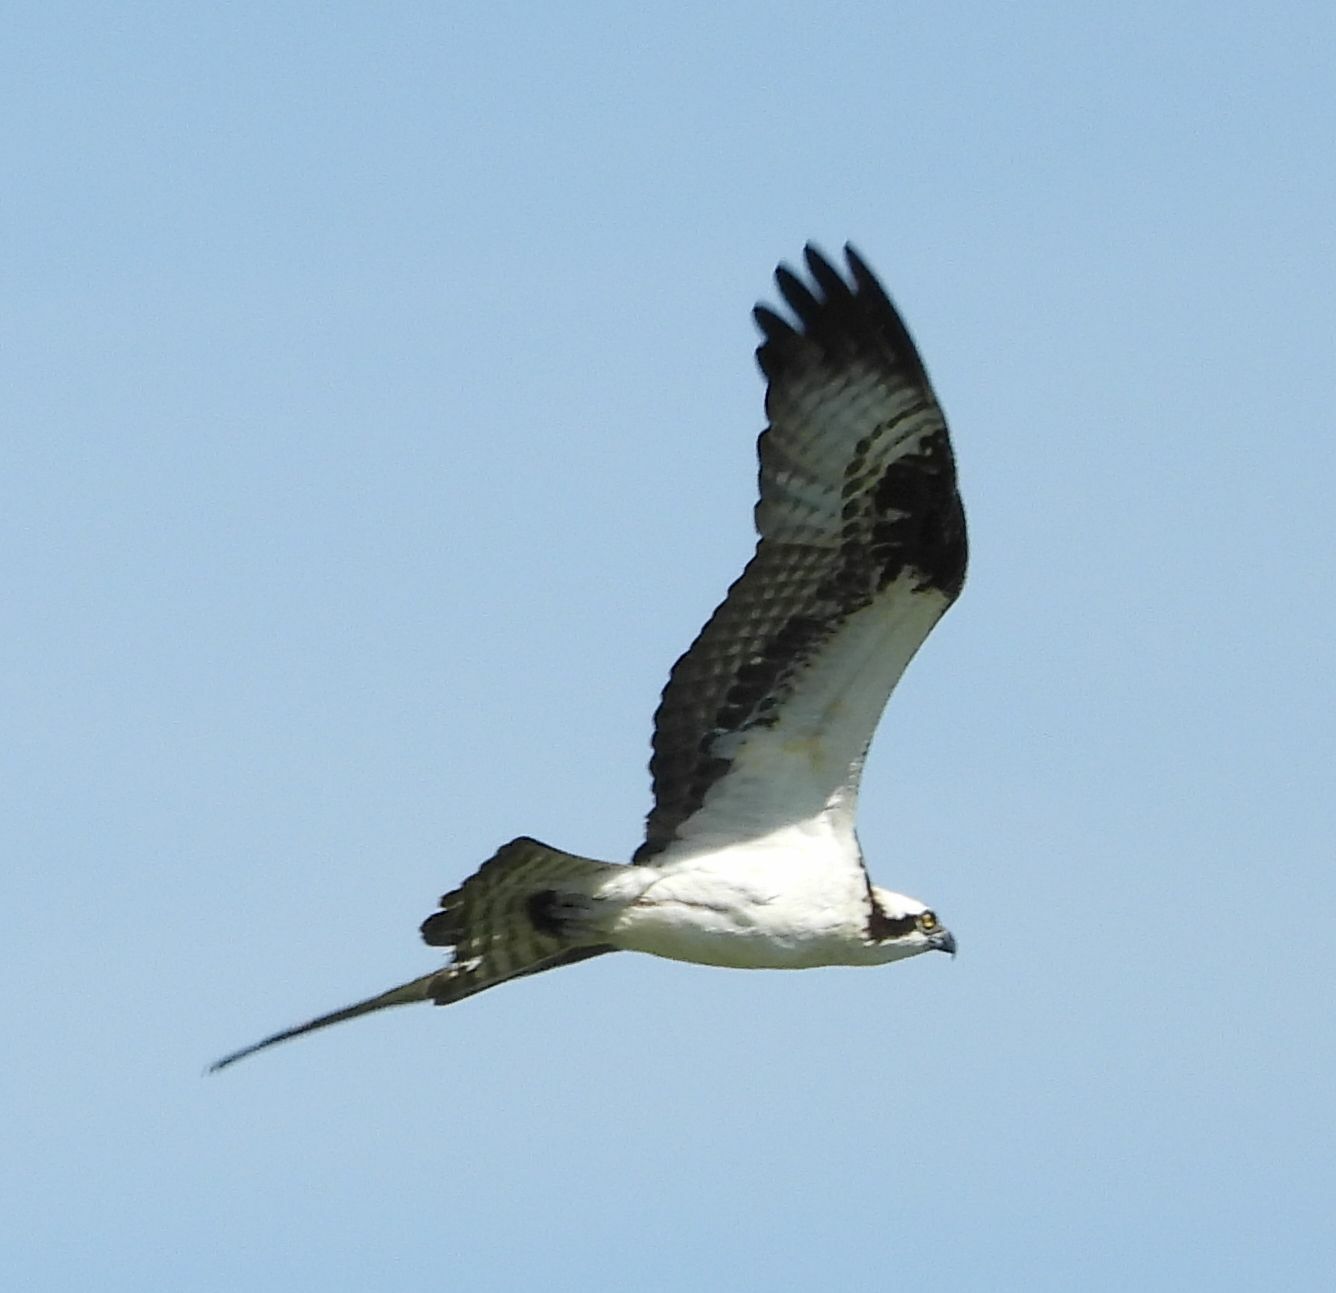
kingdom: Animalia
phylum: Chordata
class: Aves
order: Accipitriformes
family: Pandionidae
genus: Pandion
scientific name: Pandion haliaetus
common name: Osprey
